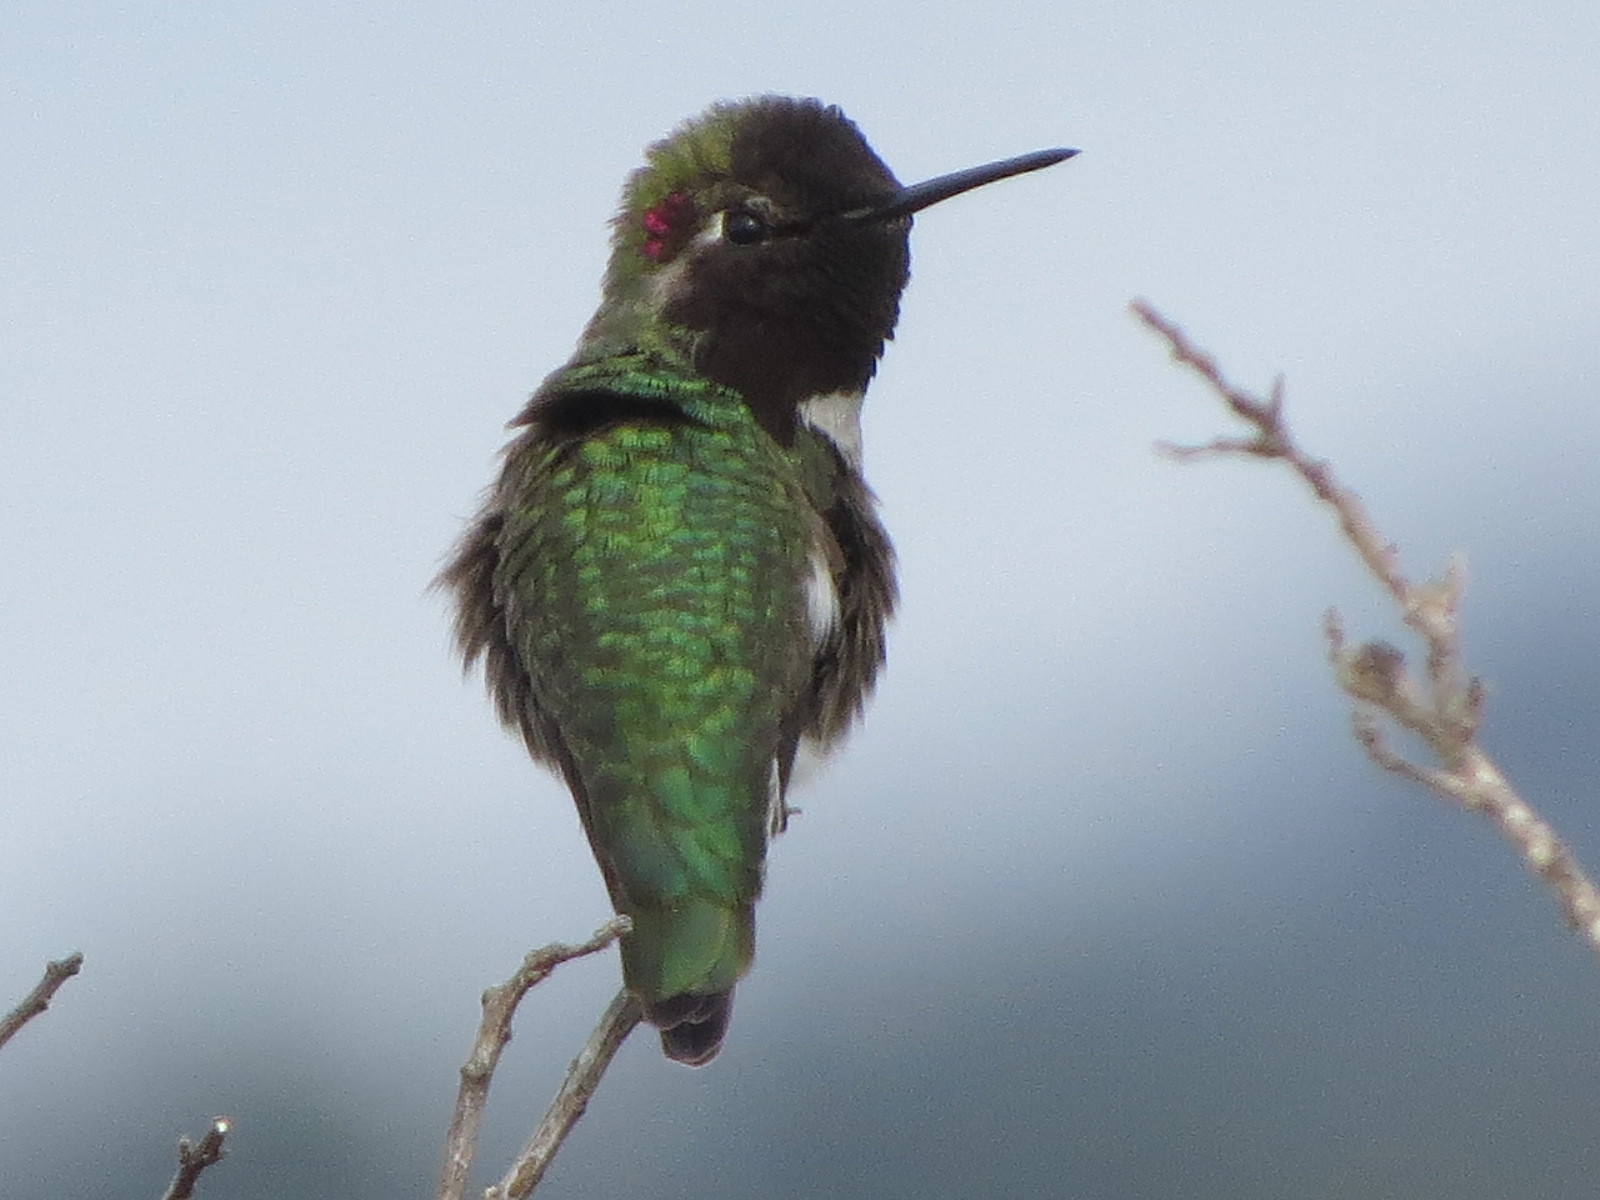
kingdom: Animalia
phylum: Chordata
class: Aves
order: Apodiformes
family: Trochilidae
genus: Calypte
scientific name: Calypte anna
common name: Anna's hummingbird
